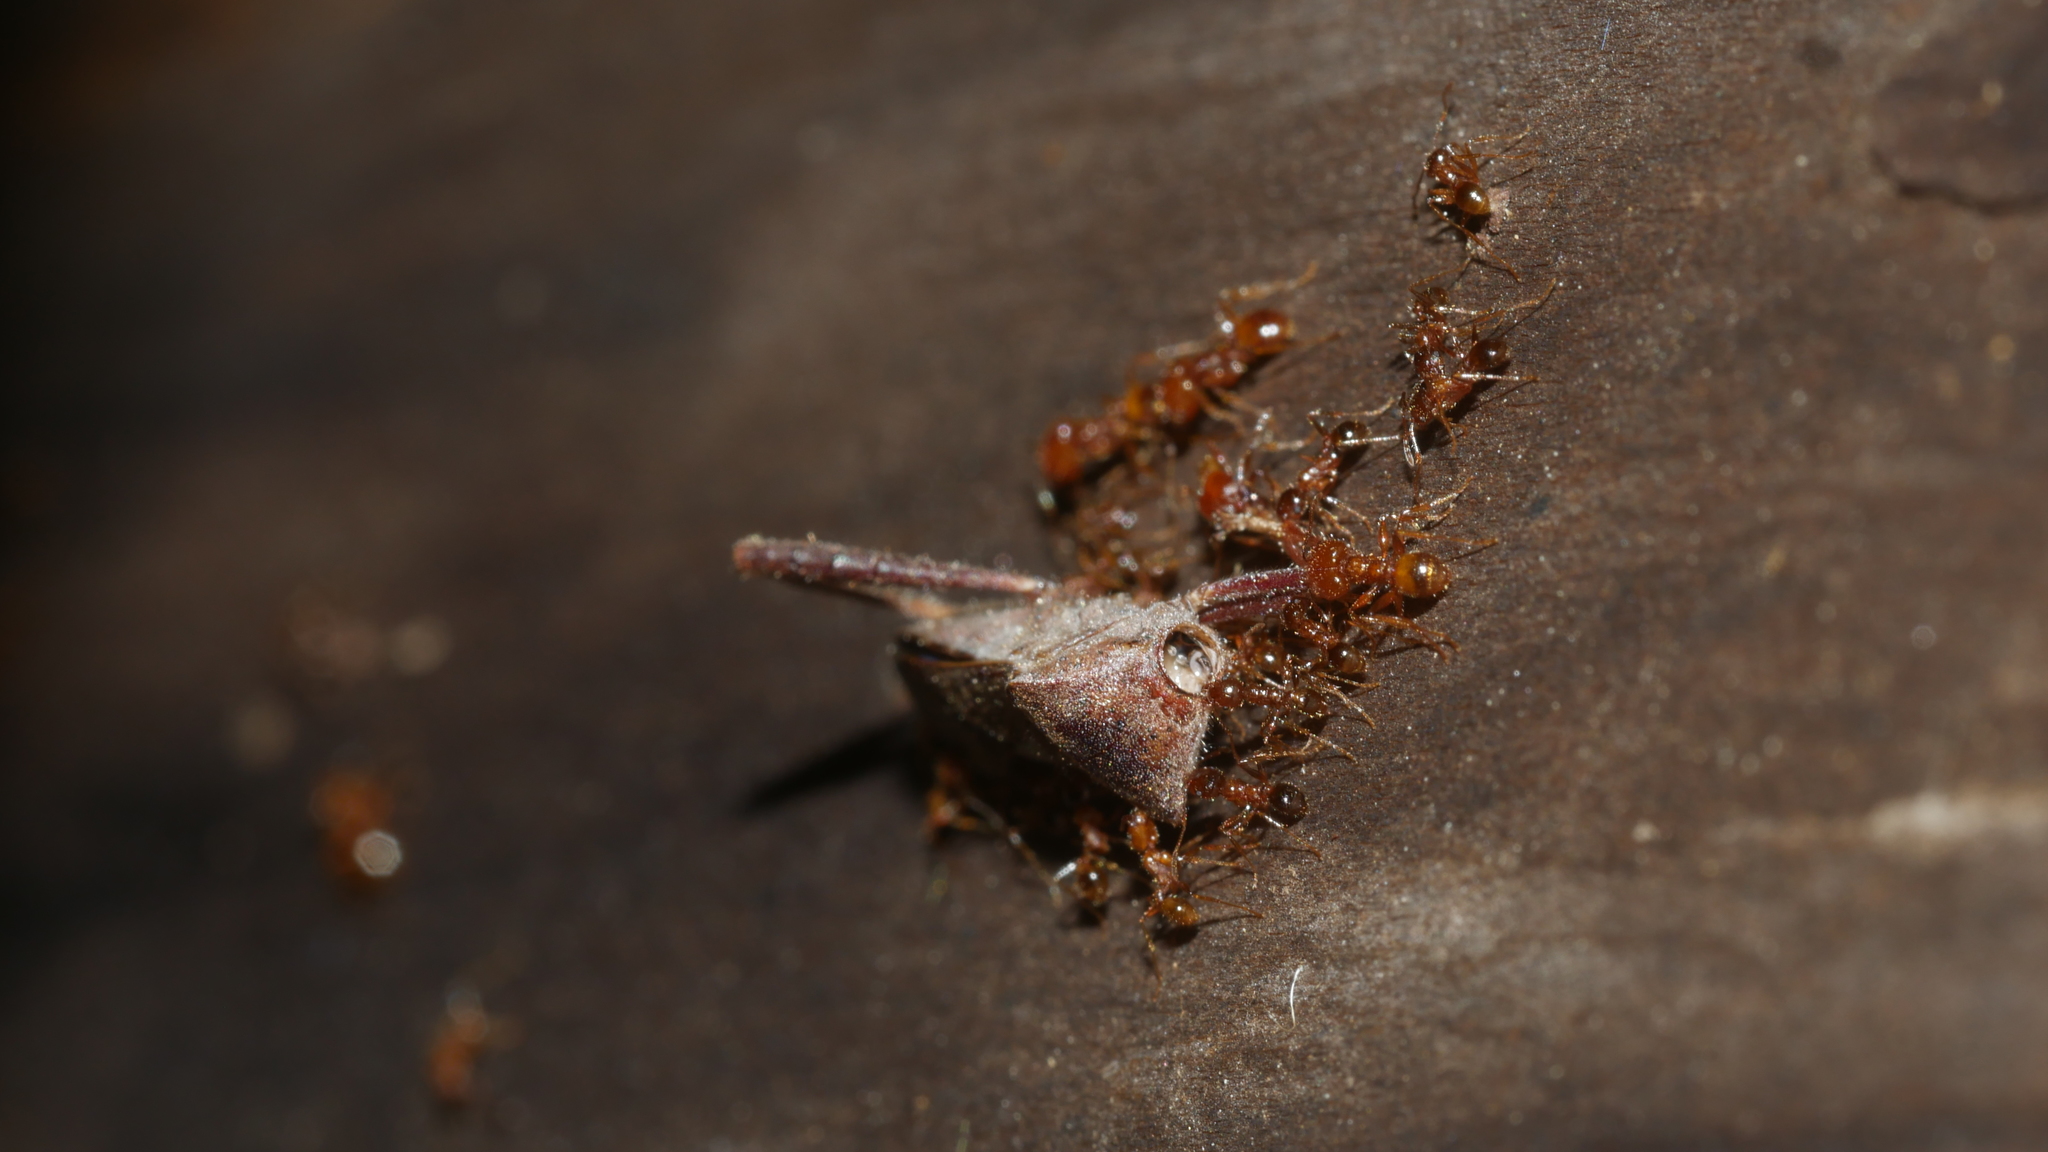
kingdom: Animalia
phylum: Arthropoda
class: Insecta
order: Hymenoptera
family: Formicidae
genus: Pheidole
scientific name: Pheidole bicarinata
